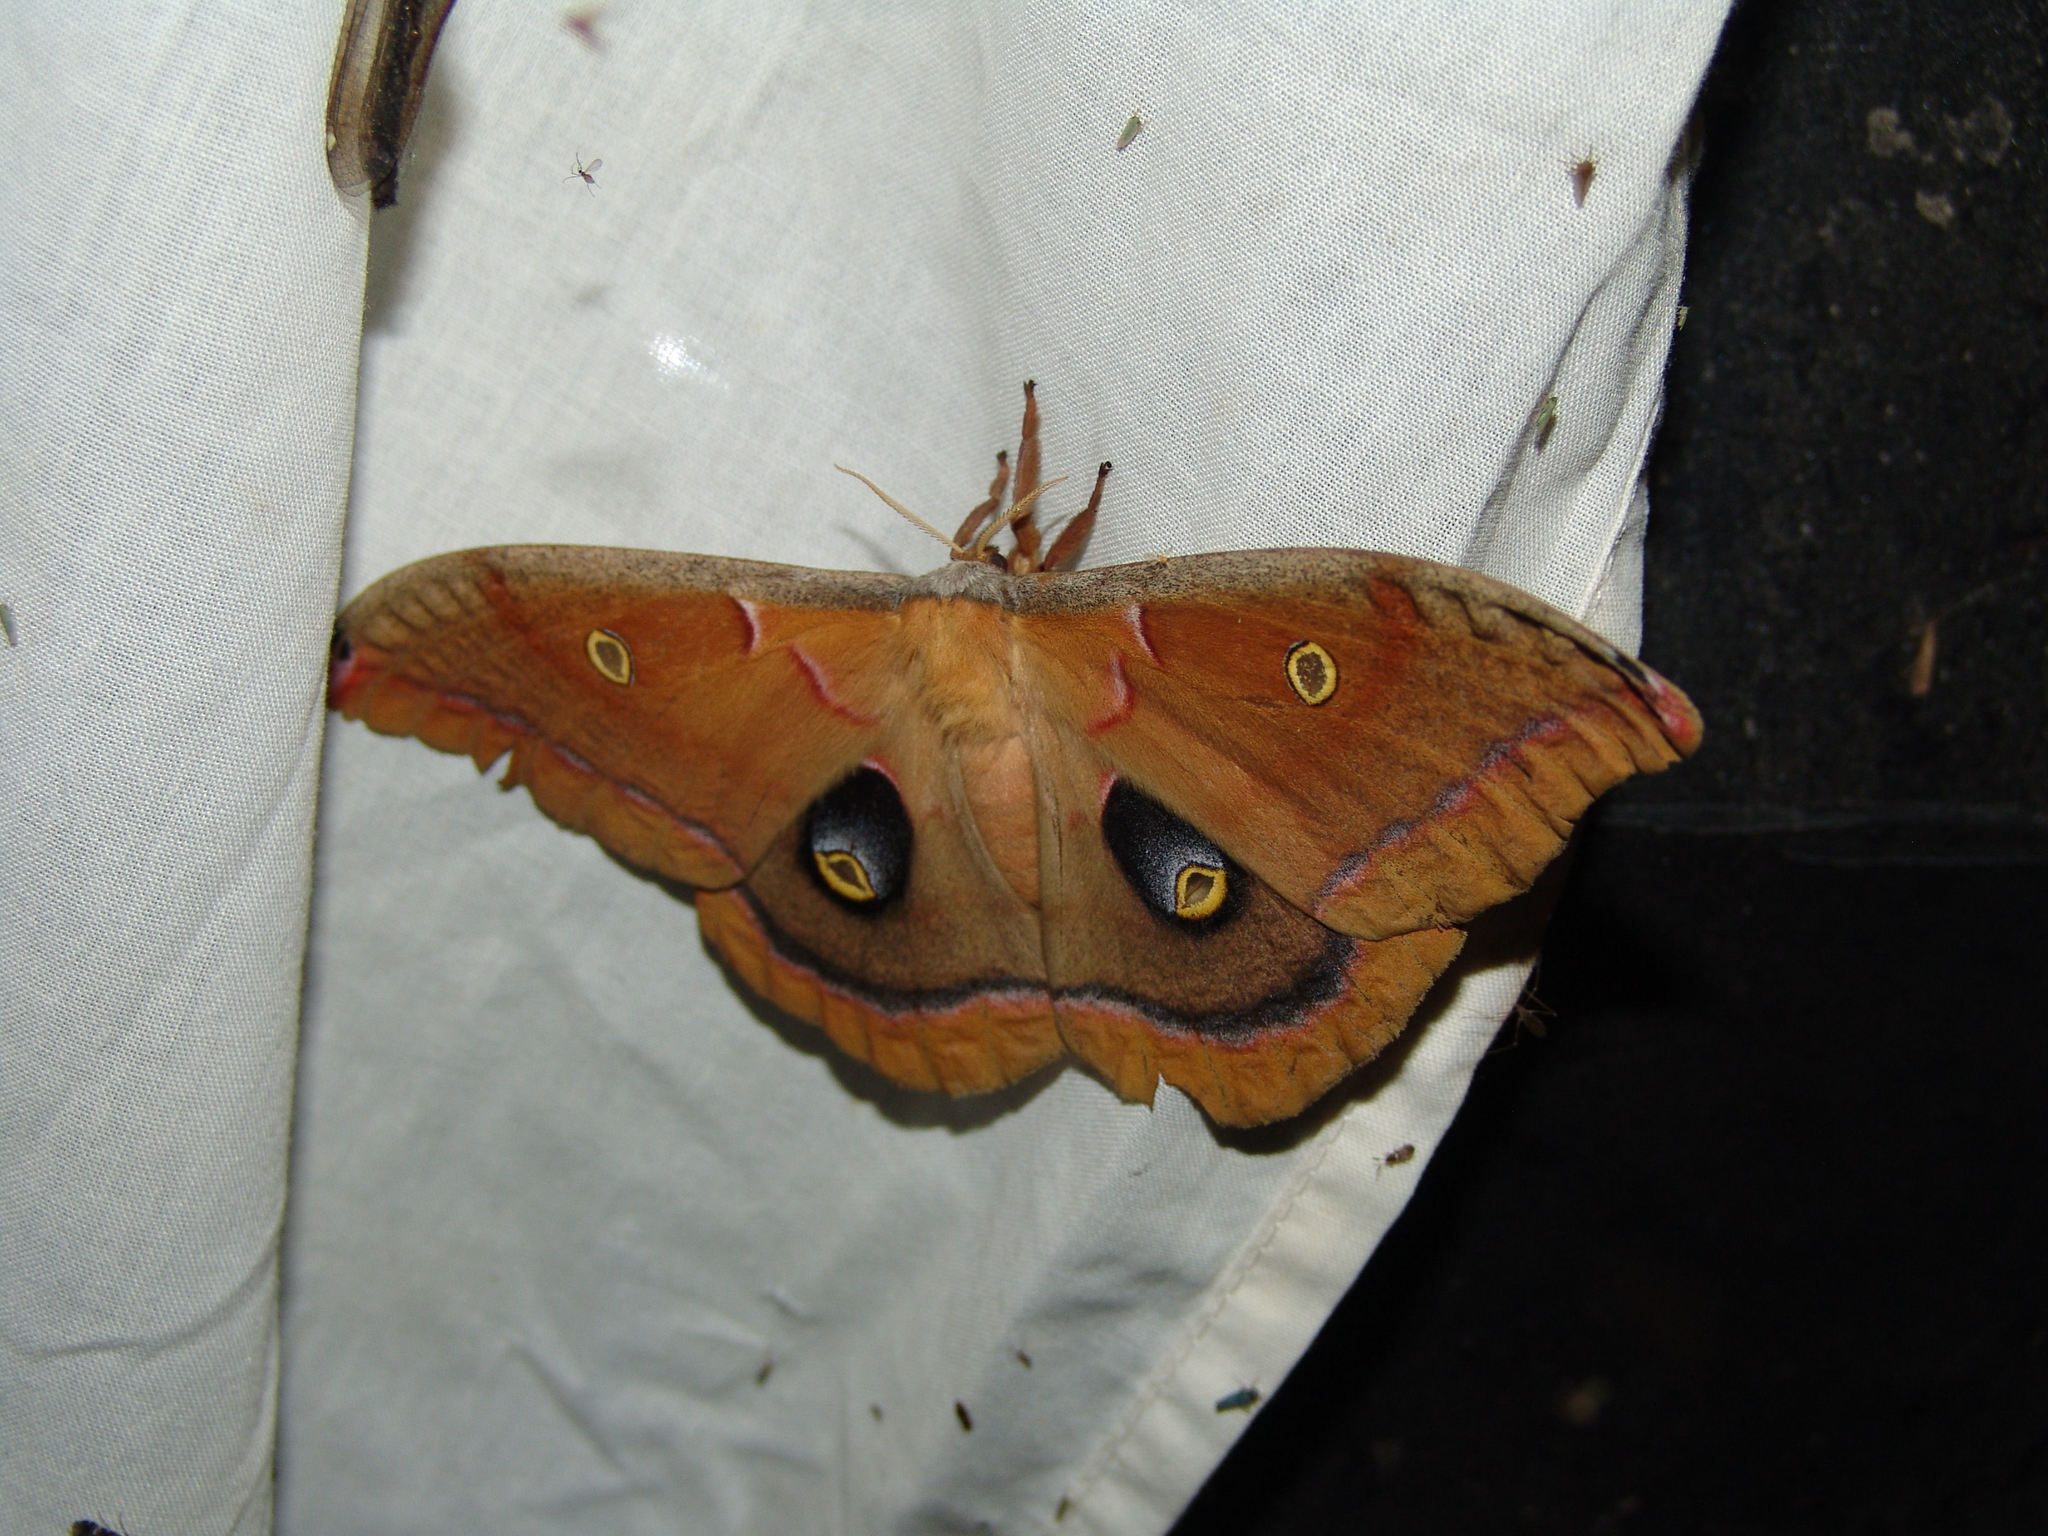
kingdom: Animalia
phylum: Arthropoda
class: Insecta
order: Lepidoptera
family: Saturniidae
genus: Antheraea
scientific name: Antheraea polyphemus
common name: Polyphemus moth
